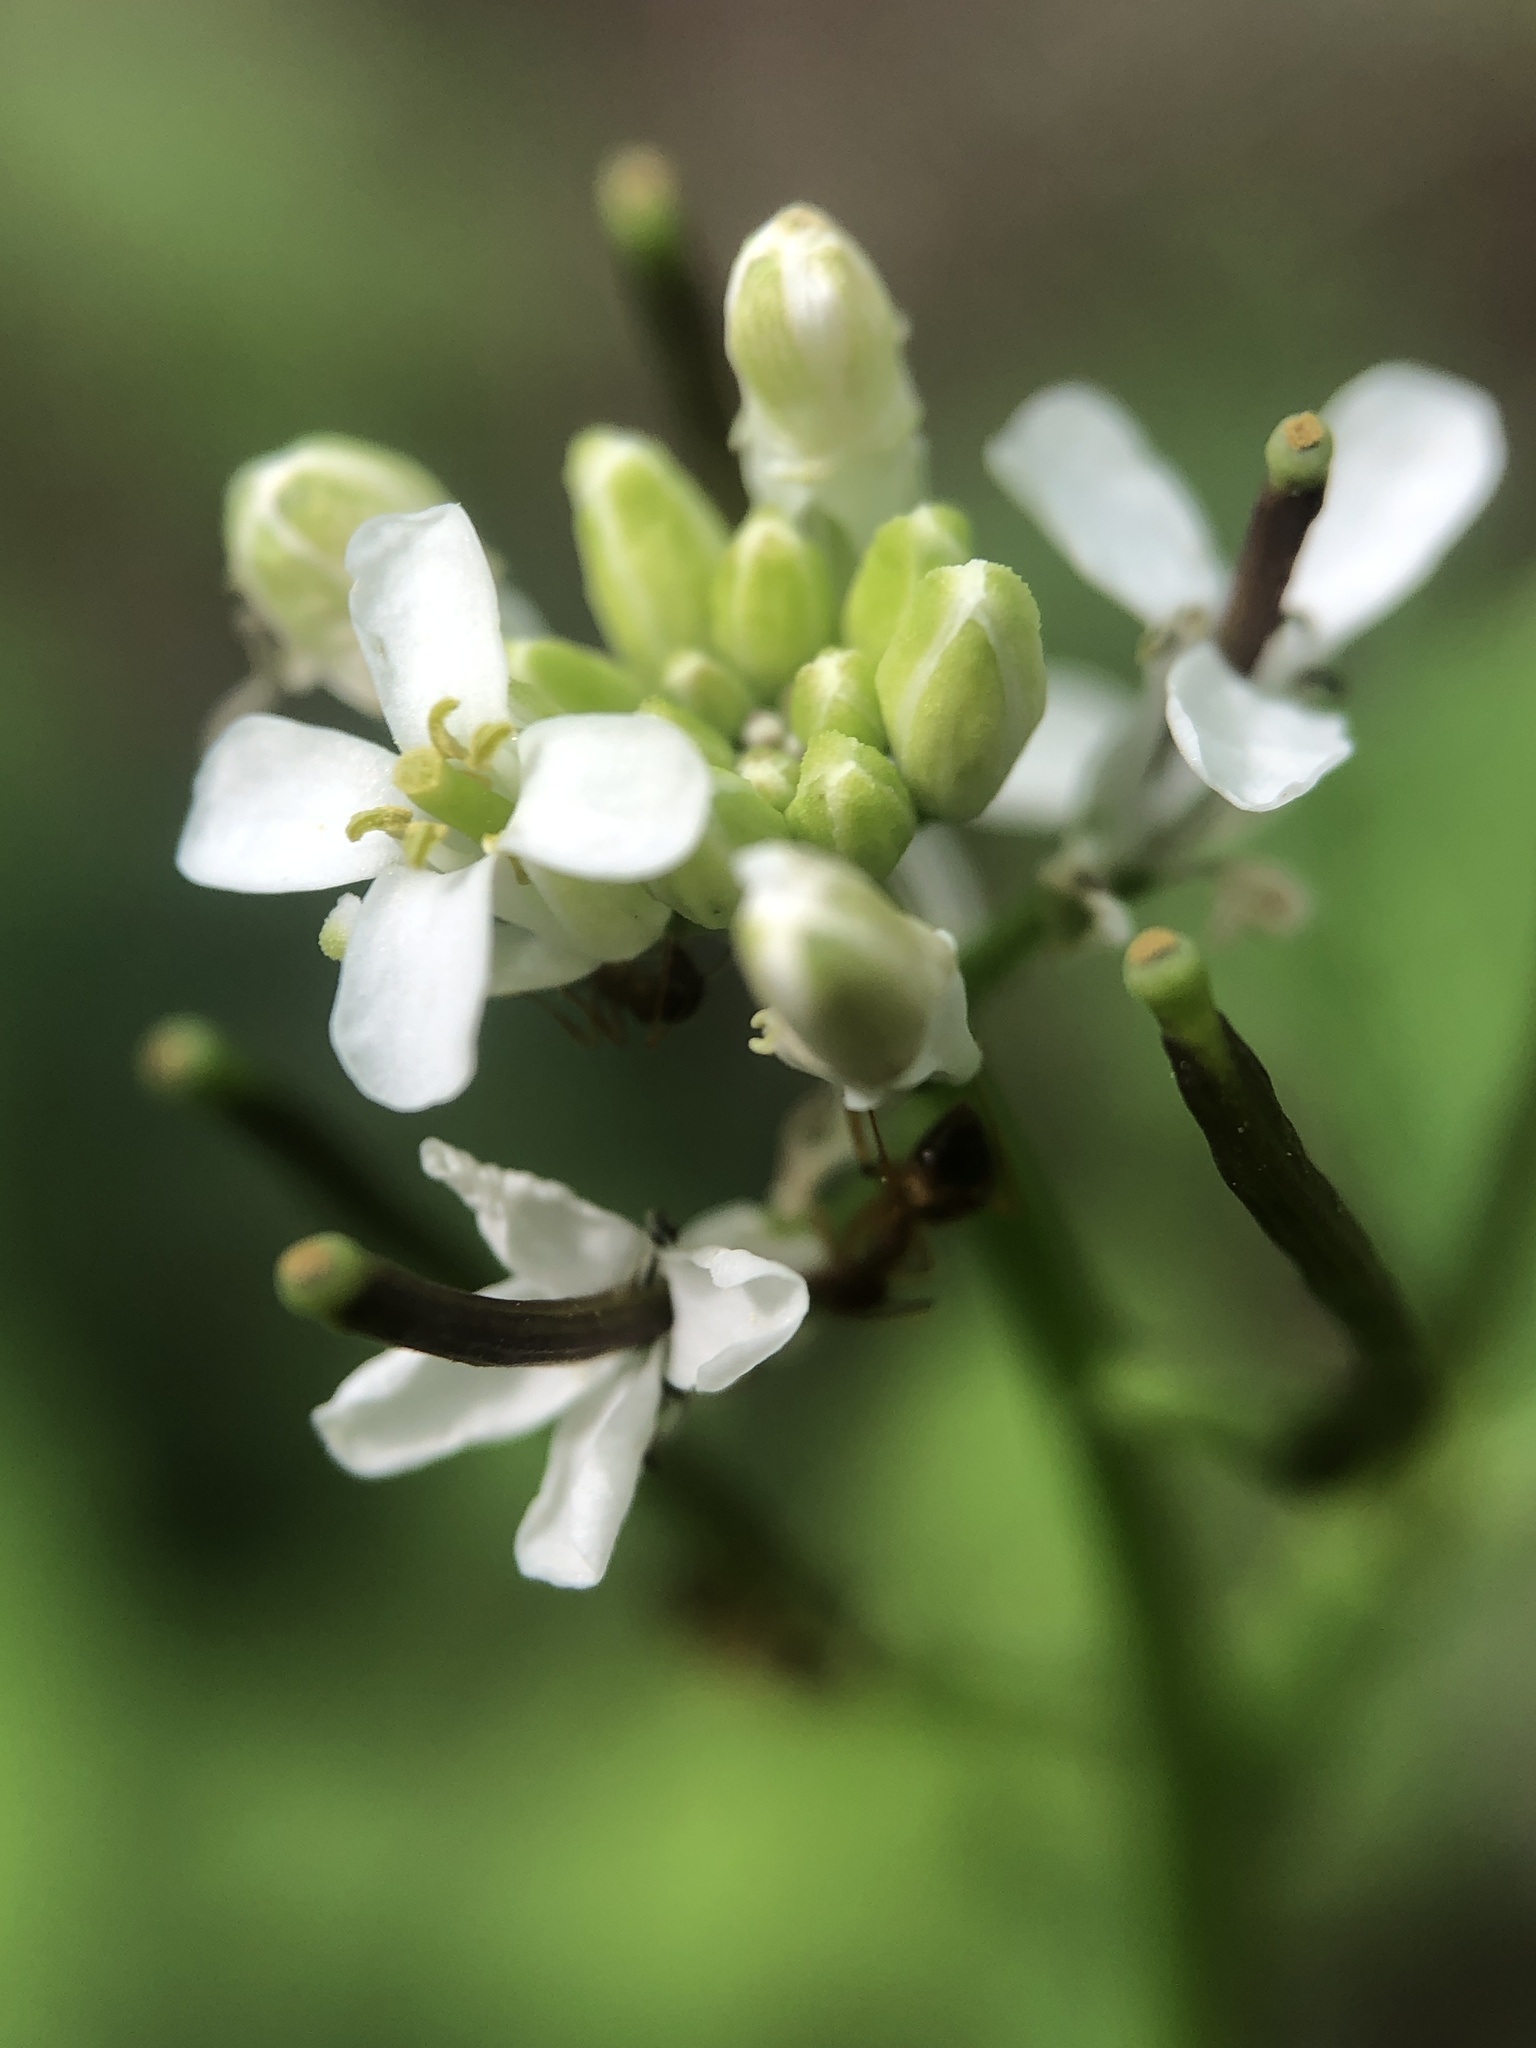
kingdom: Plantae
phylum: Tracheophyta
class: Magnoliopsida
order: Brassicales
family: Brassicaceae
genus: Alliaria
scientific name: Alliaria petiolata
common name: Garlic mustard
